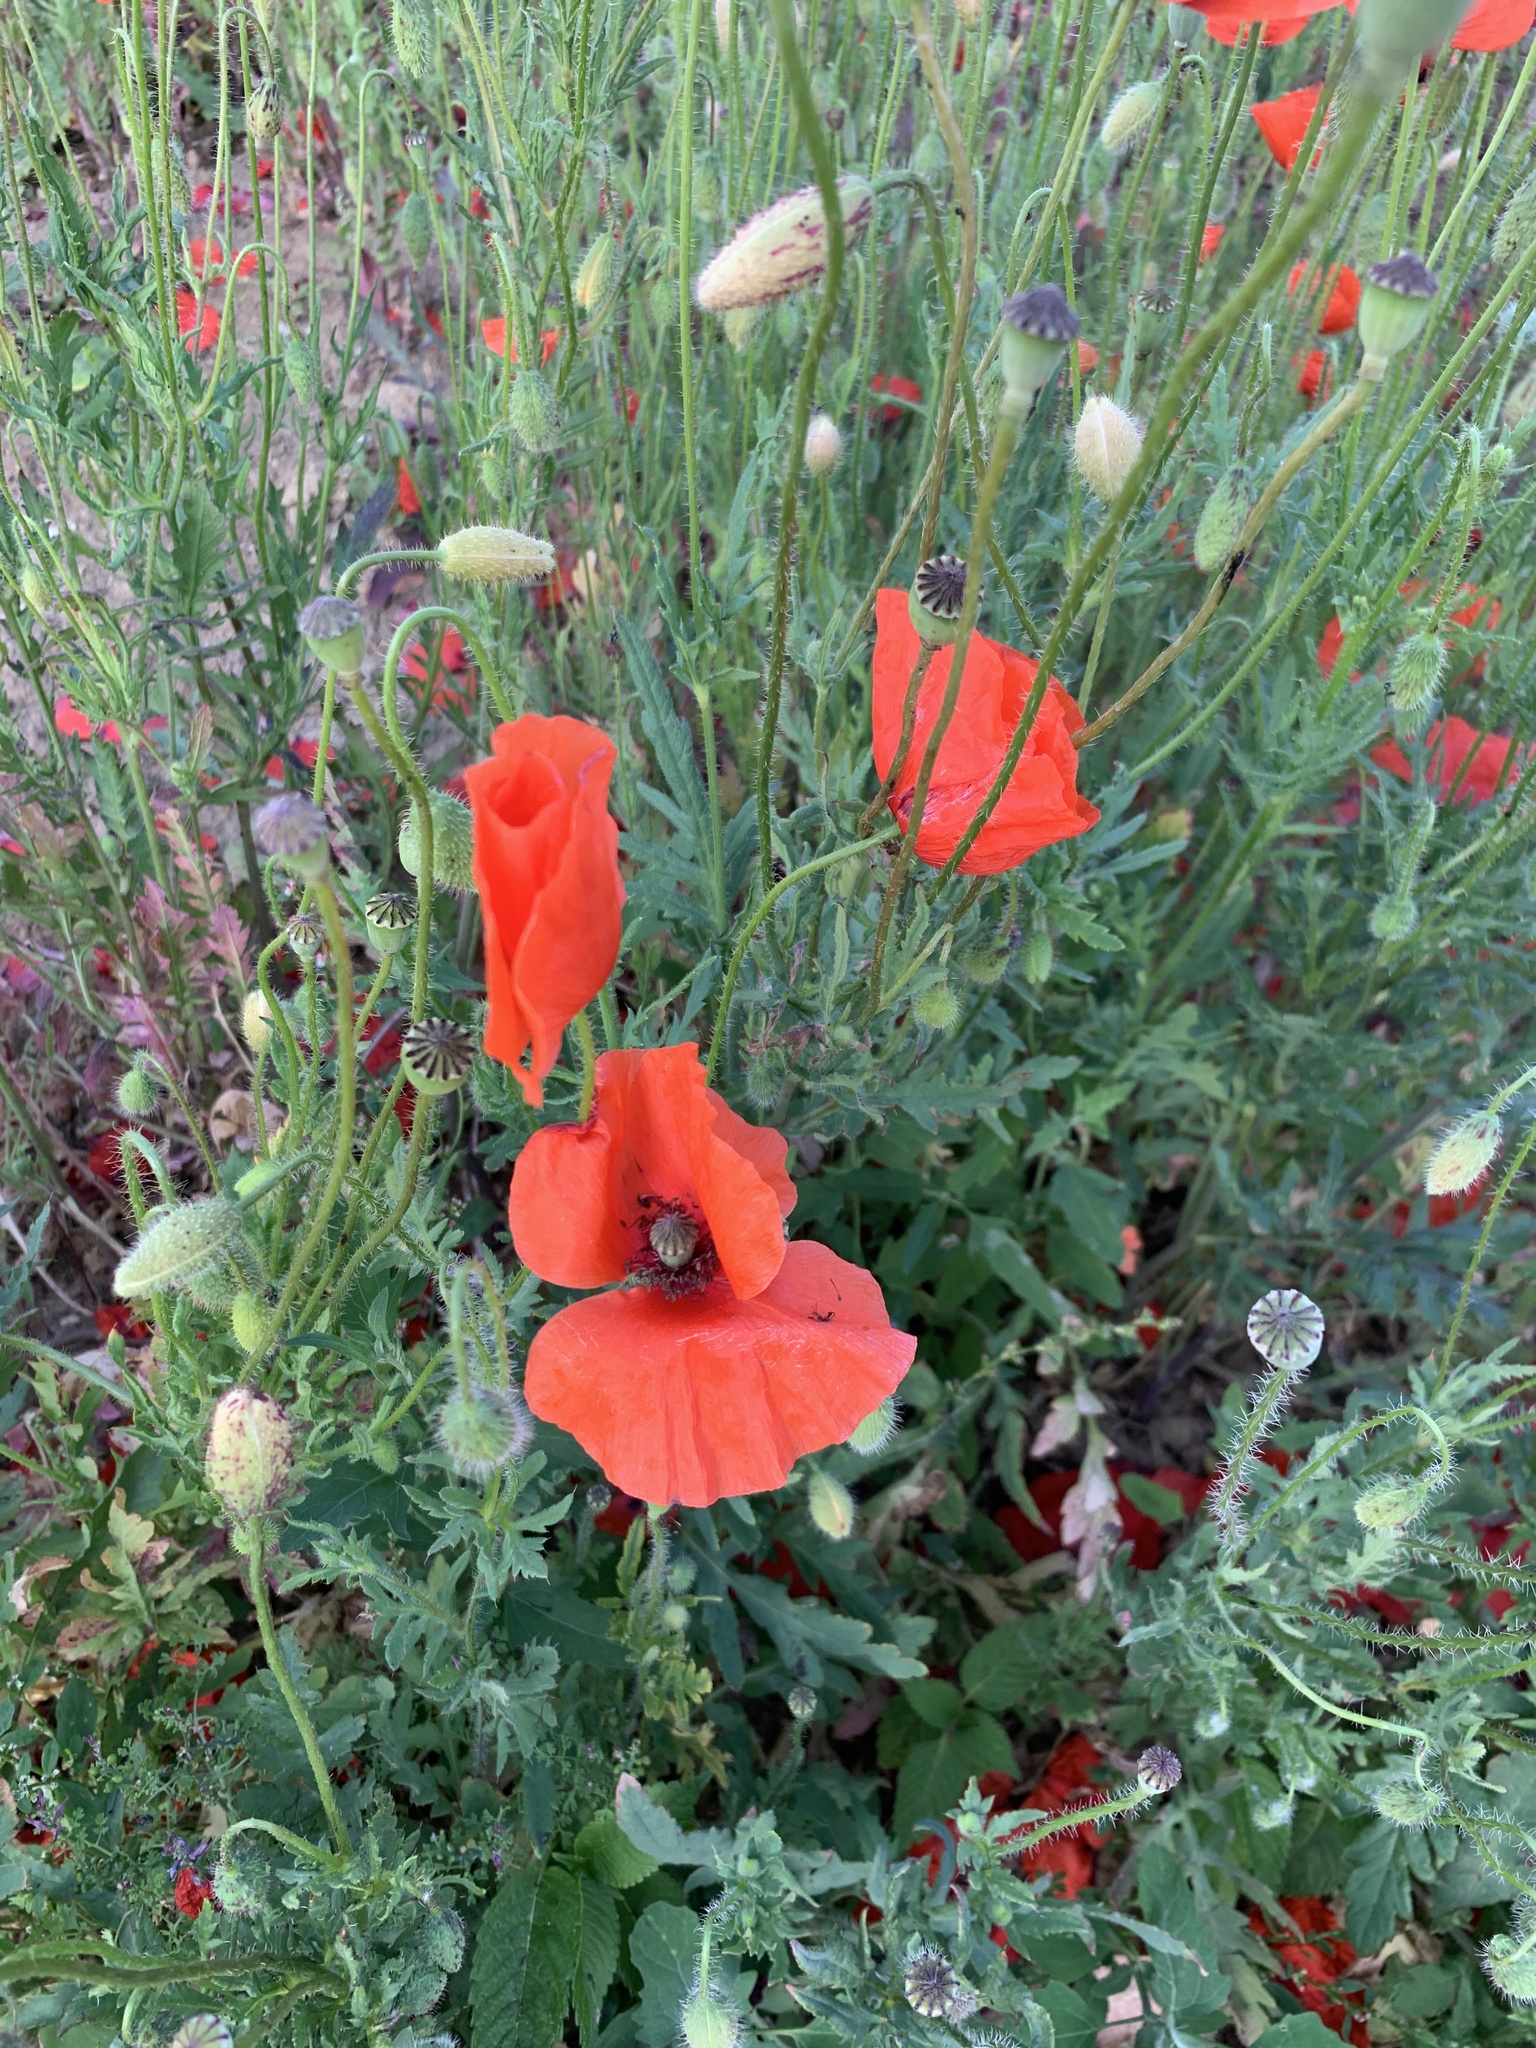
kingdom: Plantae
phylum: Tracheophyta
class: Magnoliopsida
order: Ranunculales
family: Papaveraceae
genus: Papaver
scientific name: Papaver rhoeas
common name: Corn poppy
